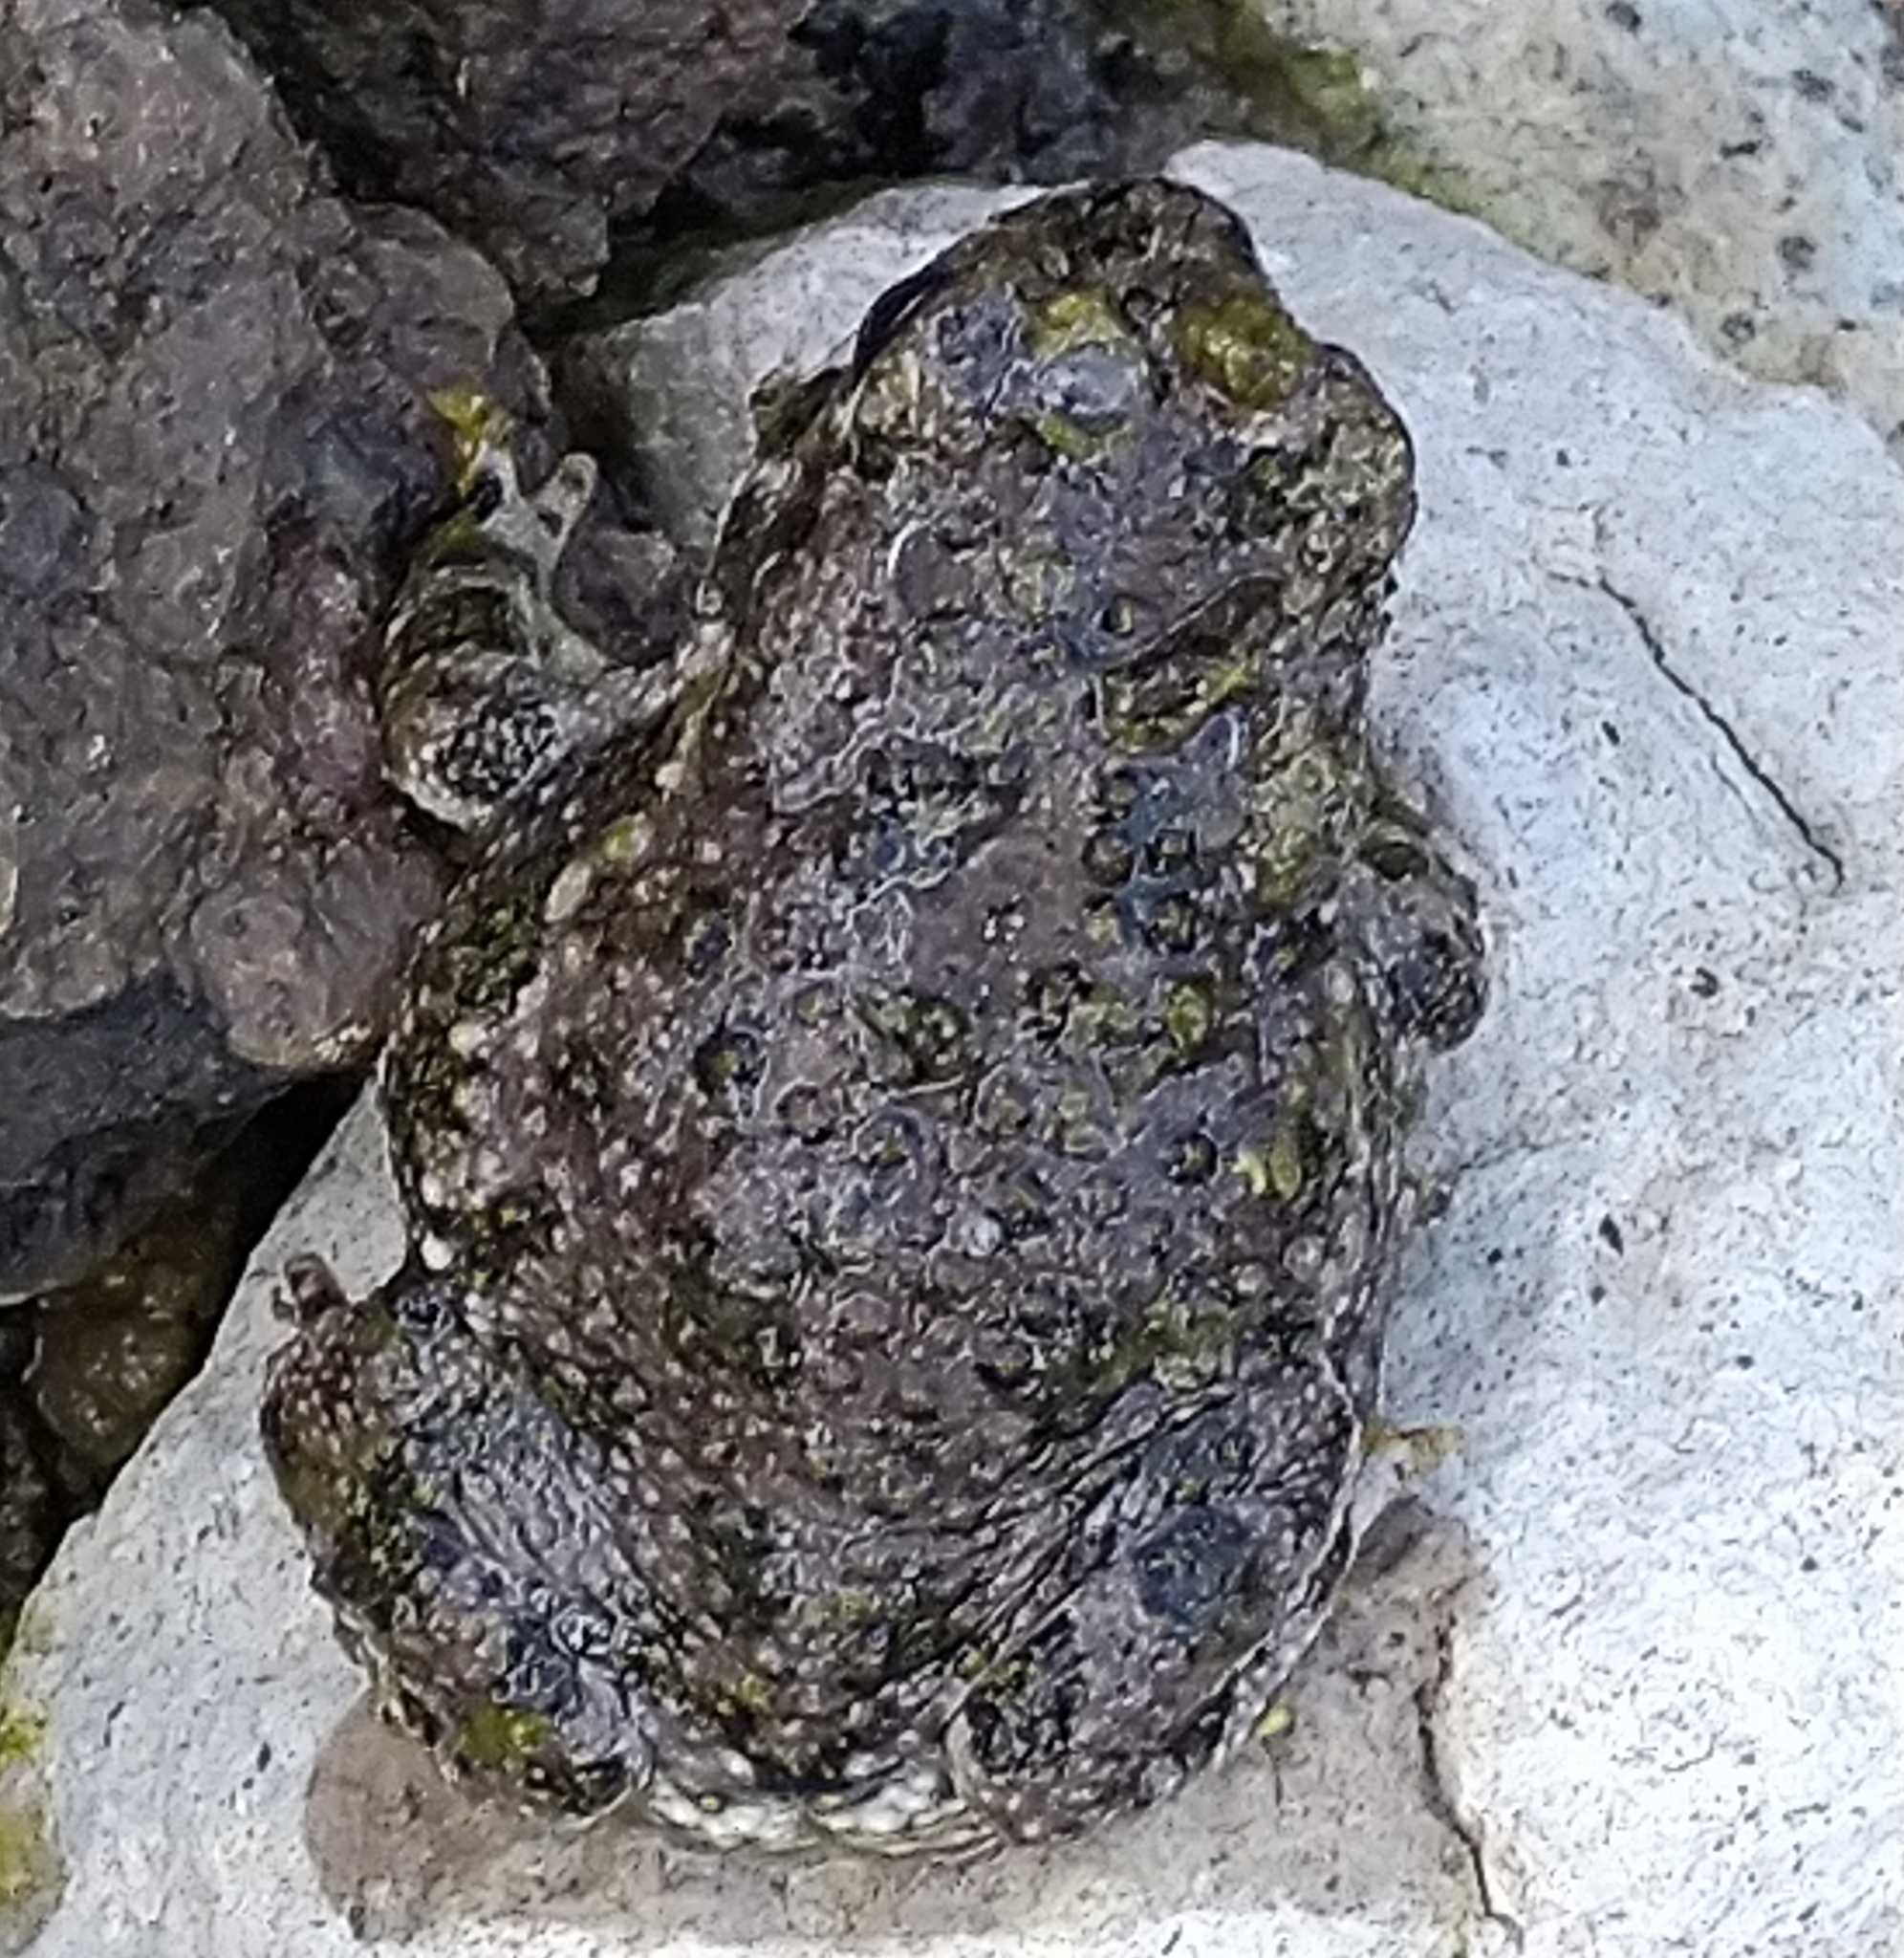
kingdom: Animalia
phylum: Chordata
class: Amphibia
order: Anura
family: Bufonidae
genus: Anaxyrus
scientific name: Anaxyrus compactilis
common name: Plateau toad
